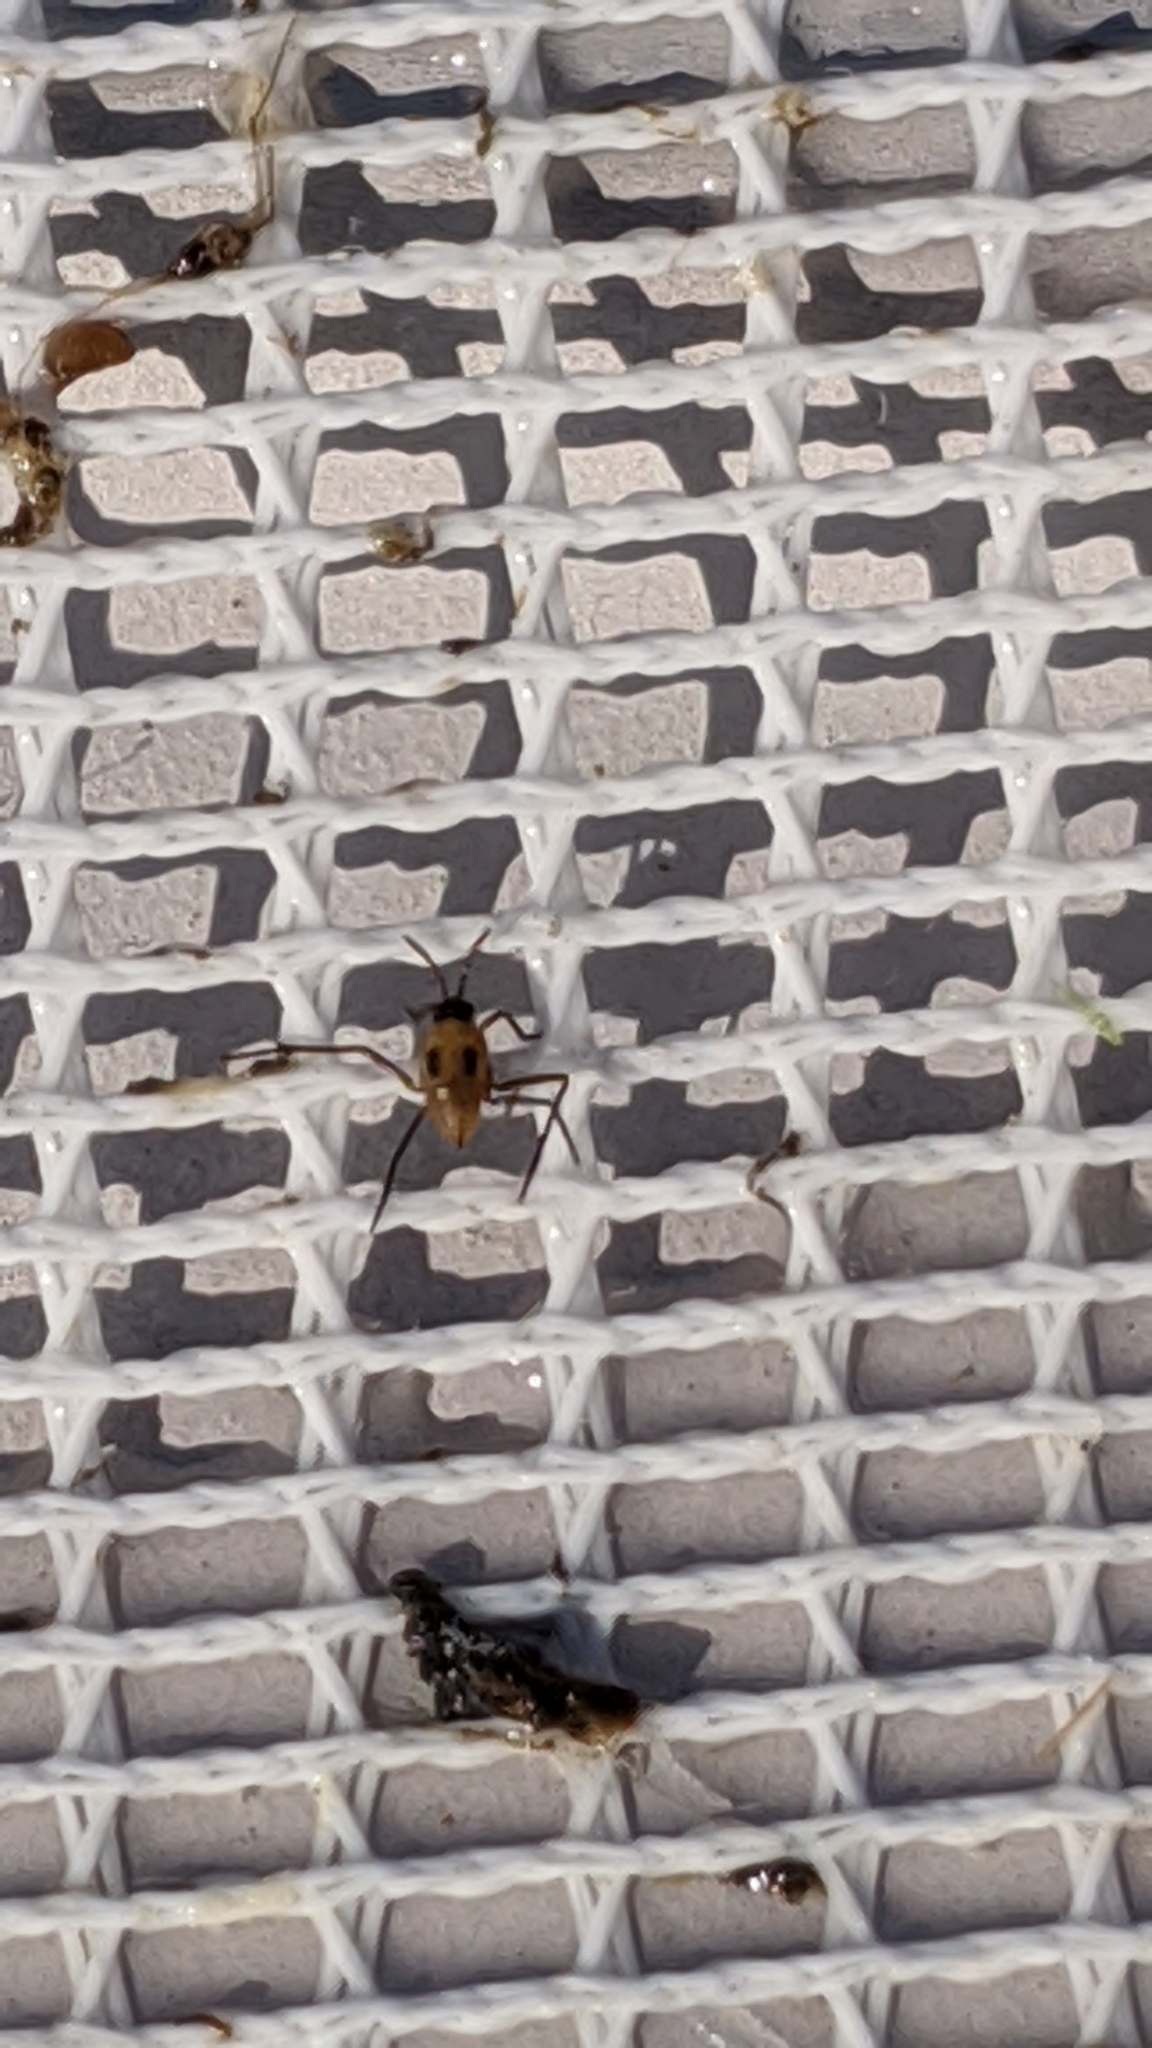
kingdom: Animalia
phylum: Arthropoda
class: Insecta
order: Hemiptera
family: Gerridae
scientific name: Gerridae
